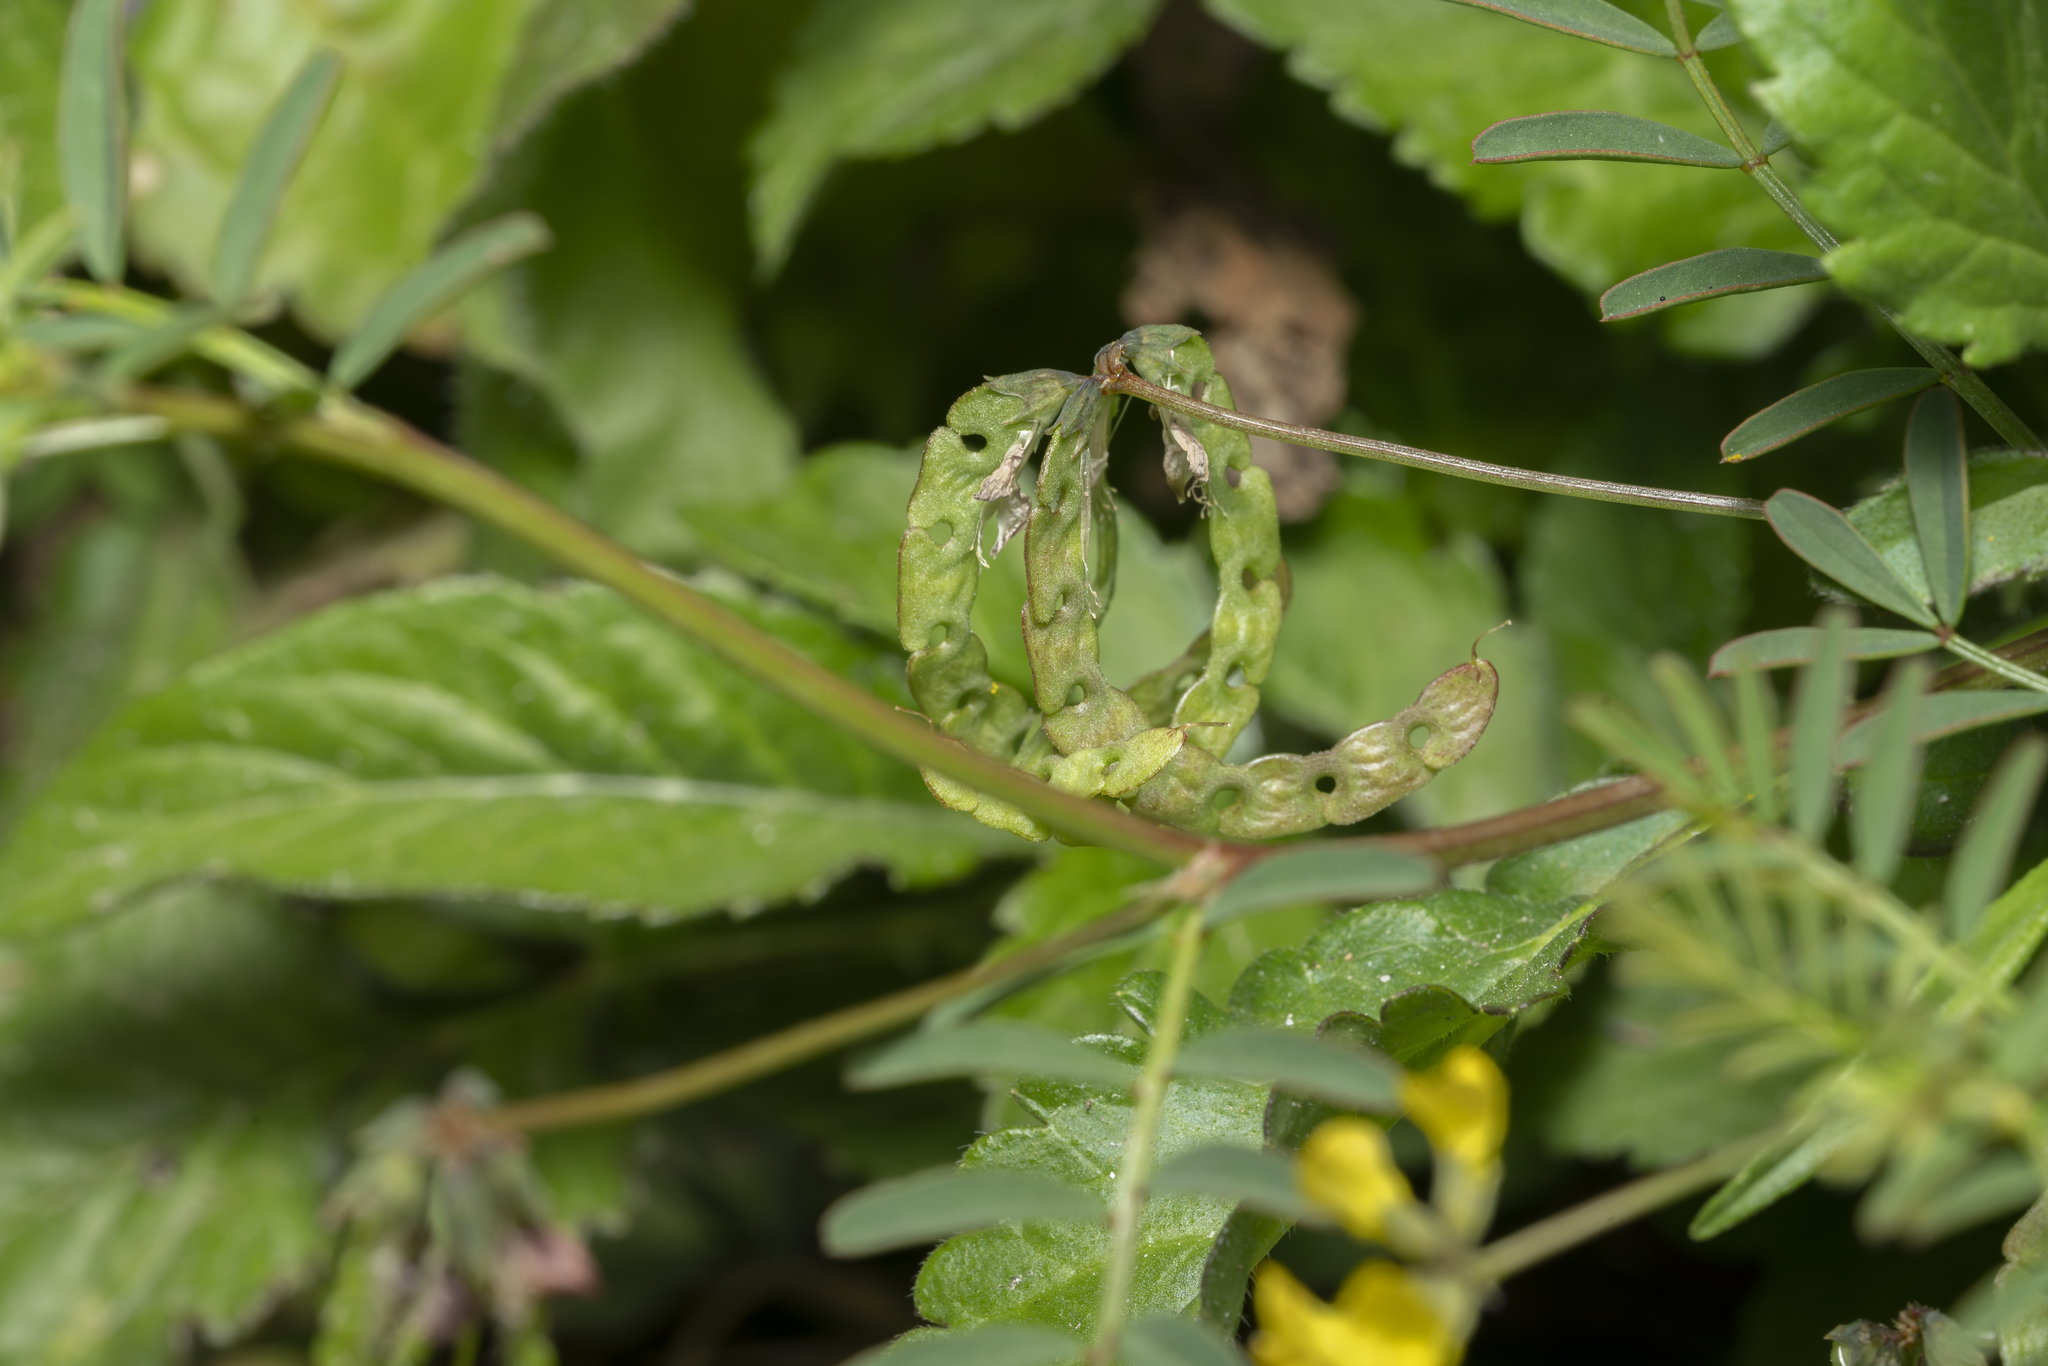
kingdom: Plantae
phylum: Tracheophyta
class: Magnoliopsida
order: Fabales
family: Fabaceae
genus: Hippocrepis
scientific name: Hippocrepis multisiliquosa
